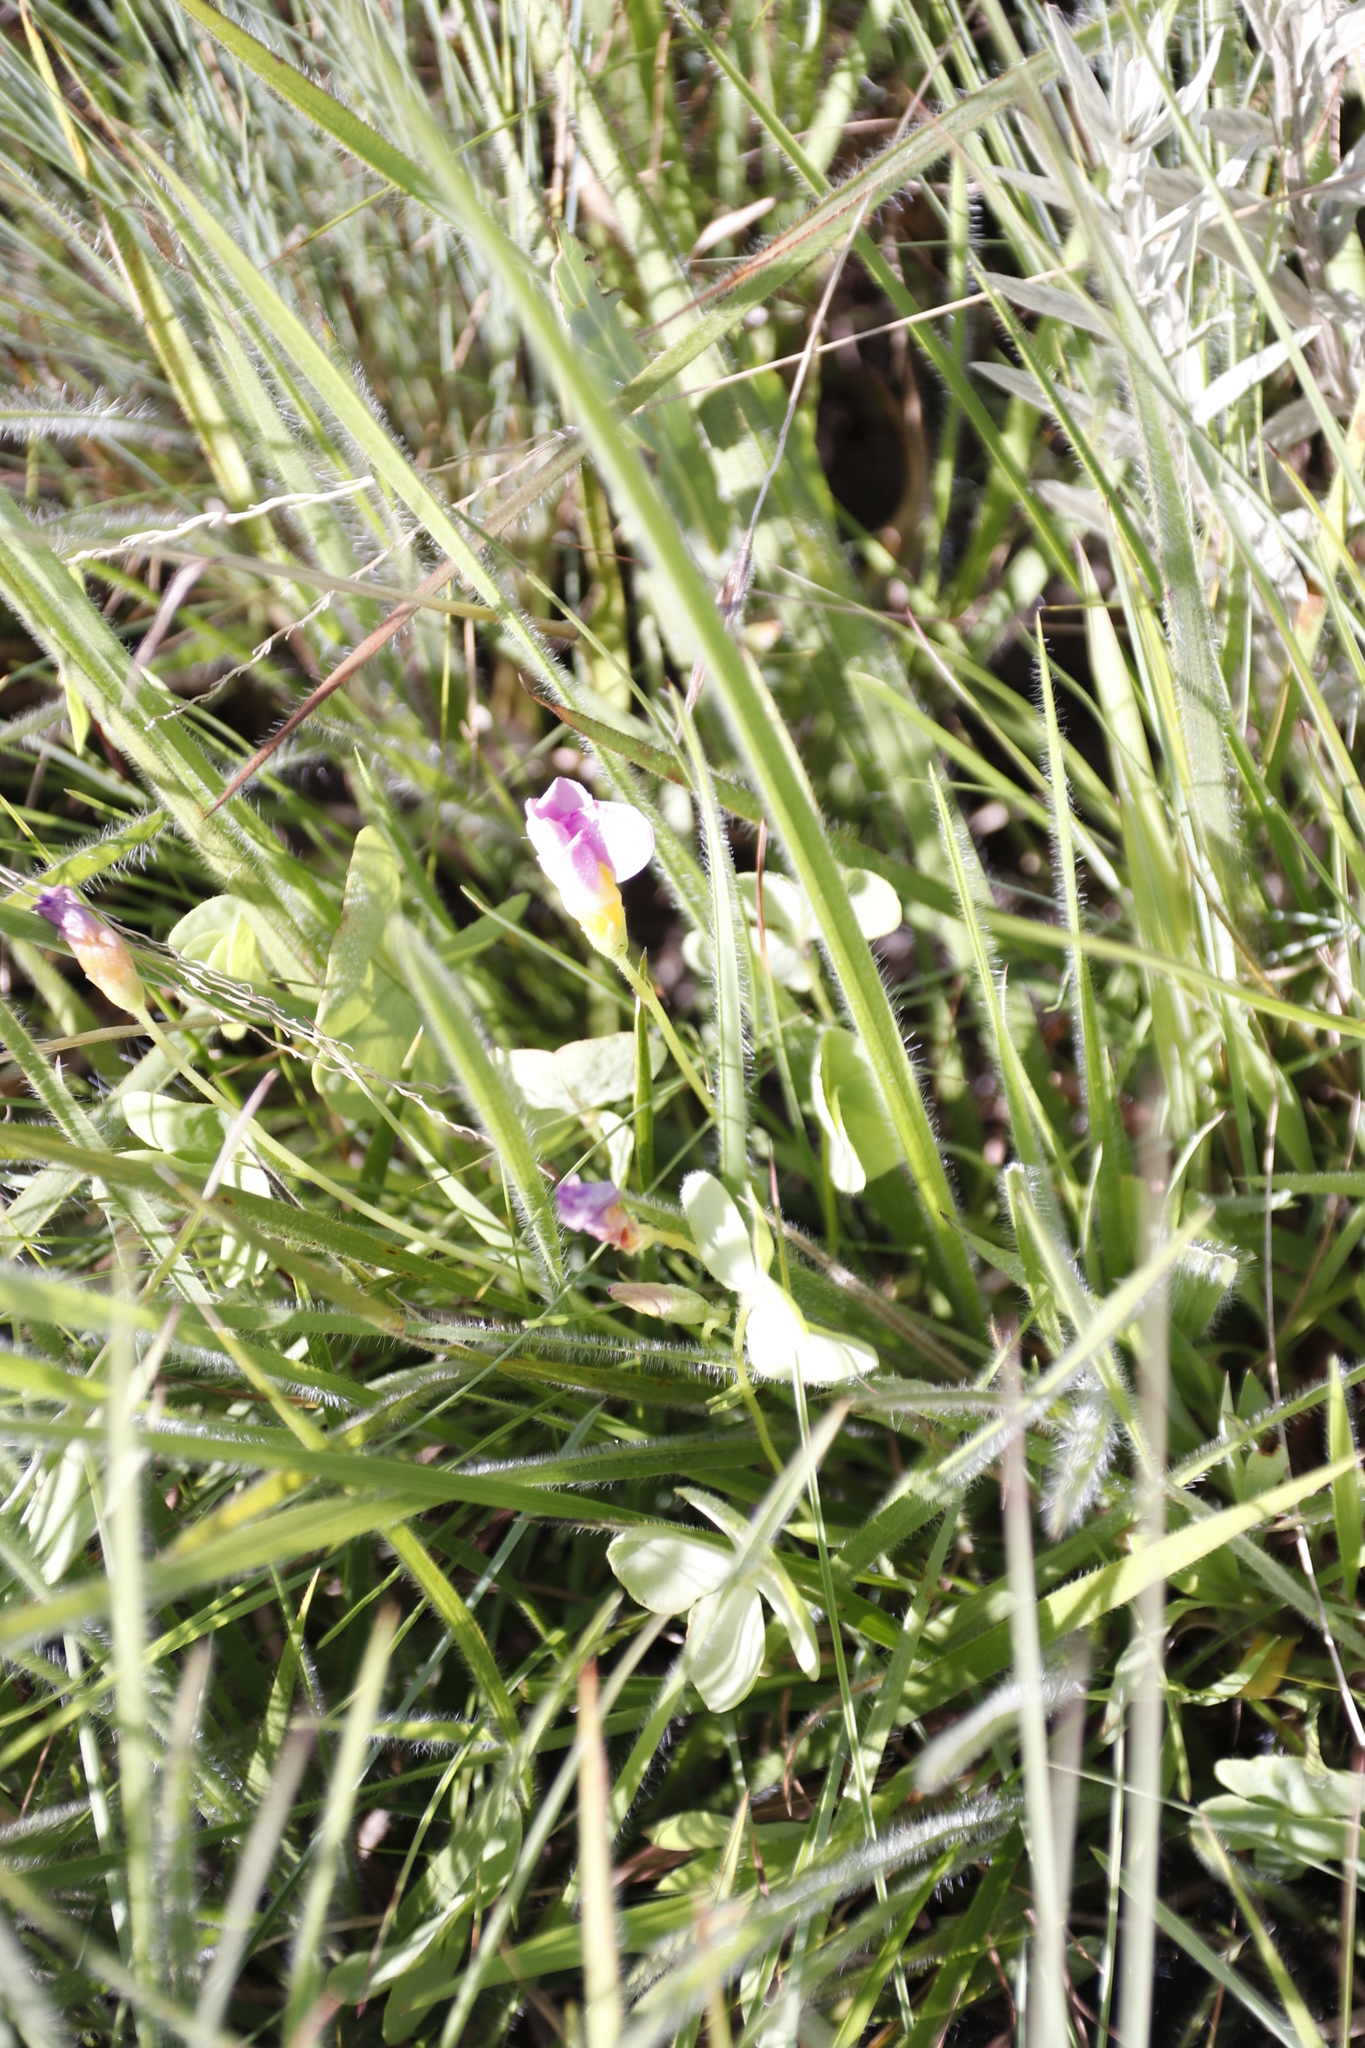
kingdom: Plantae
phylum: Tracheophyta
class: Magnoliopsida
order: Fabales
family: Fabaceae
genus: Indigofera
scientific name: Indigofera rostrata
